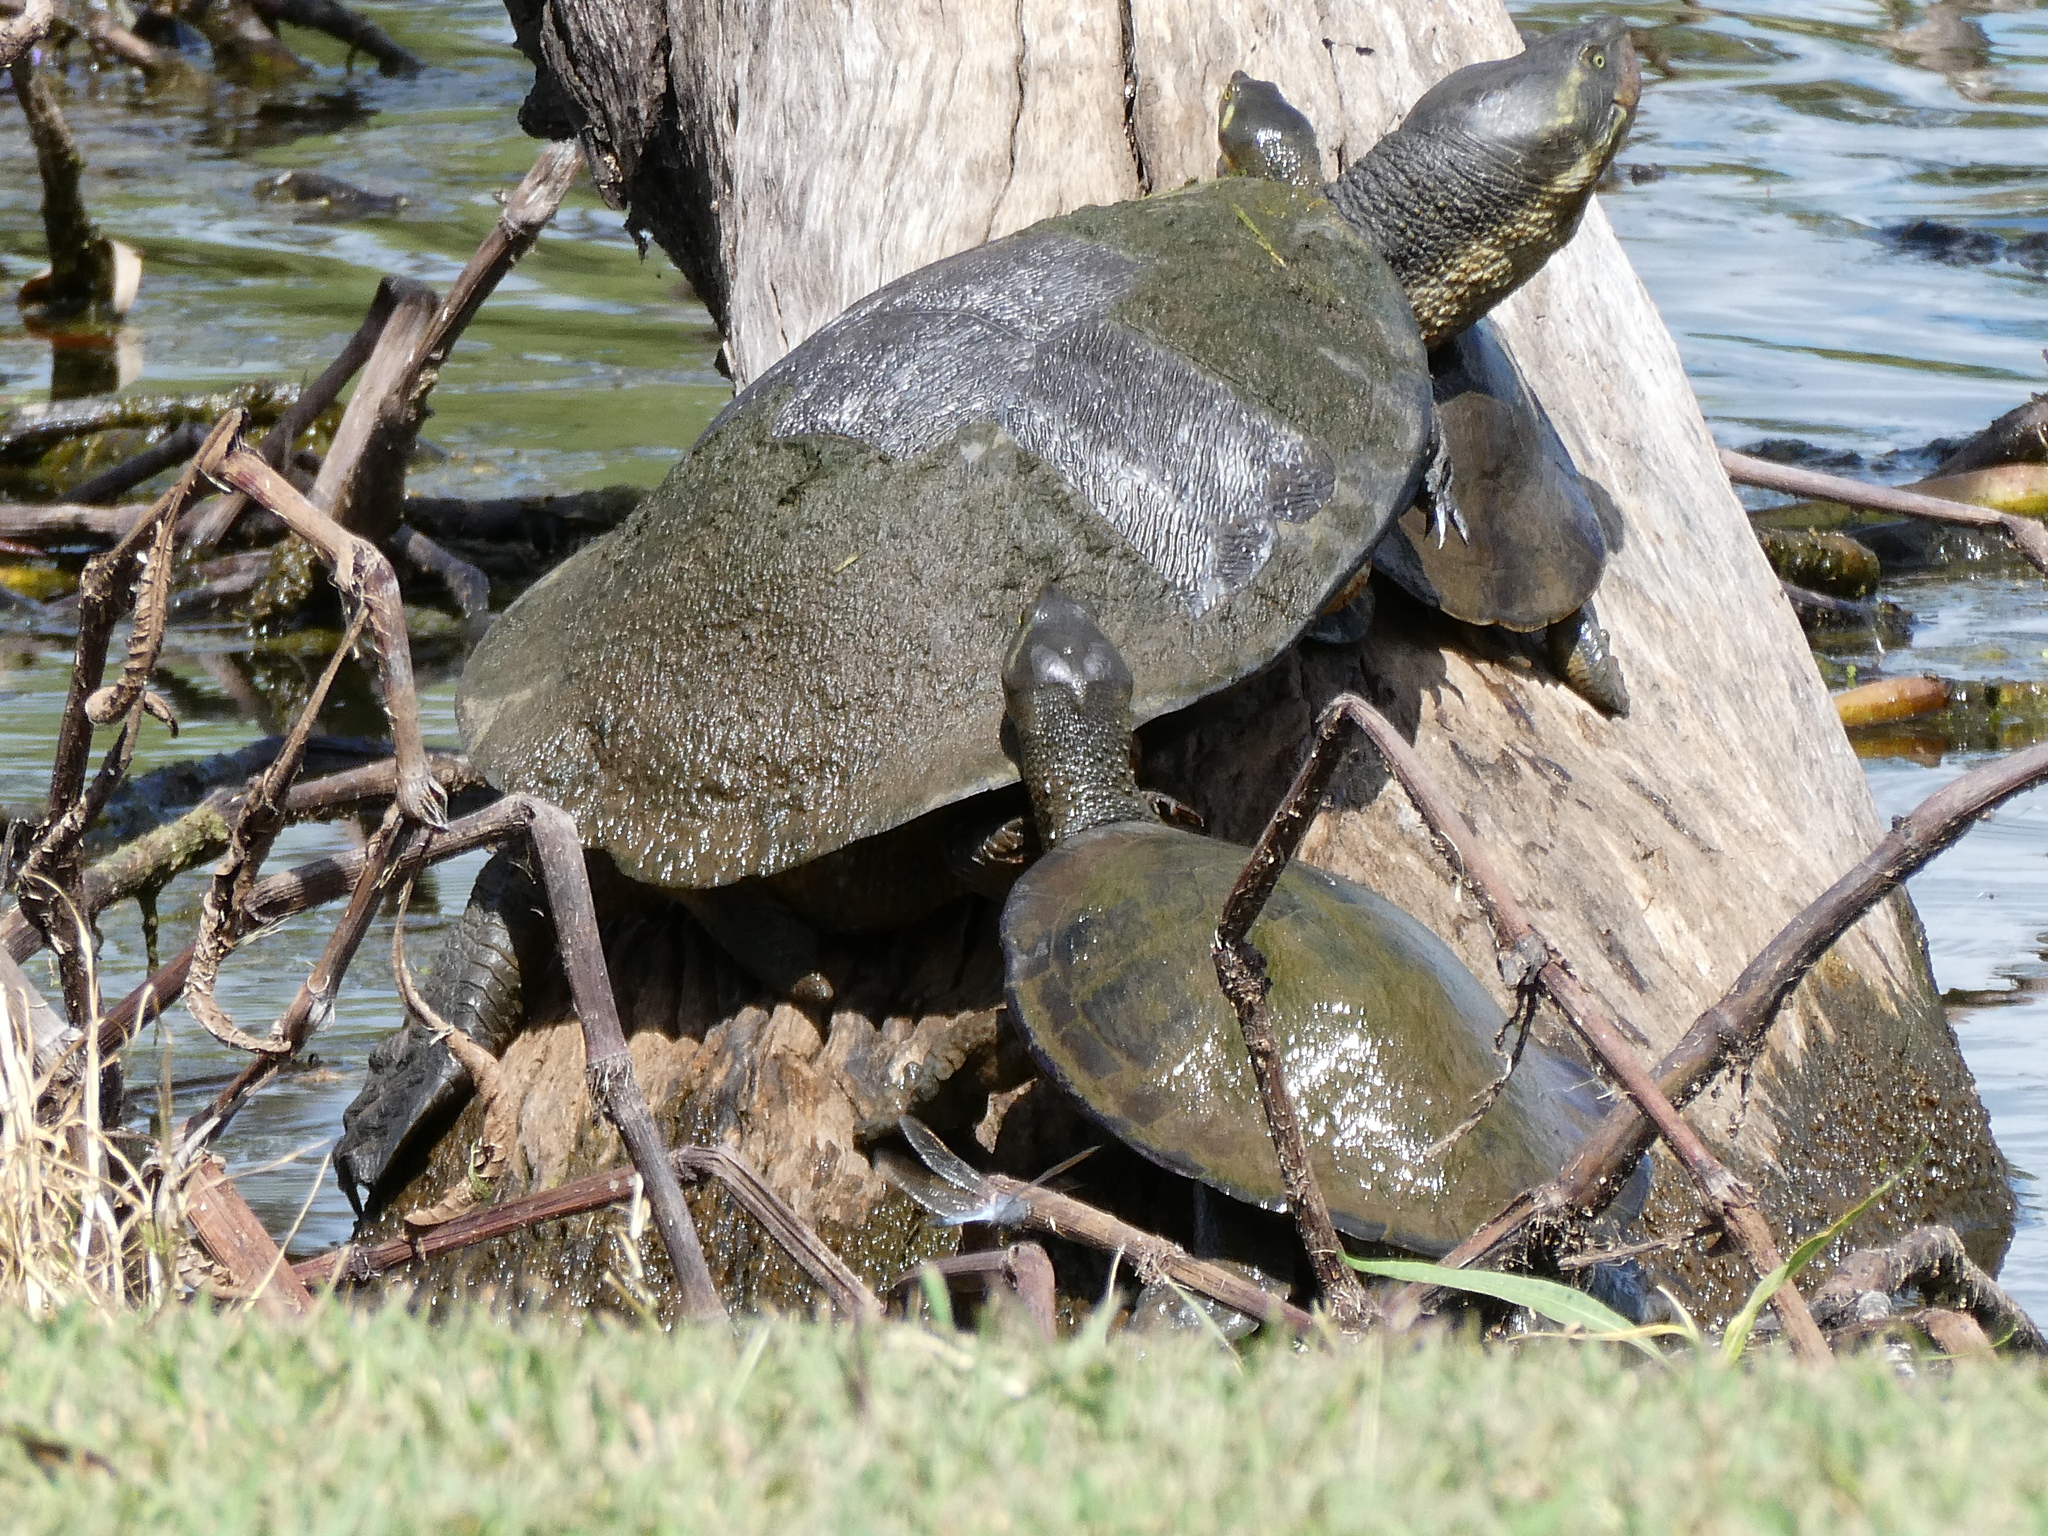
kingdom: Animalia
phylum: Chordata
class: Testudines
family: Chelidae
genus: Emydura
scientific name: Emydura macquarii
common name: Murray river turtle
